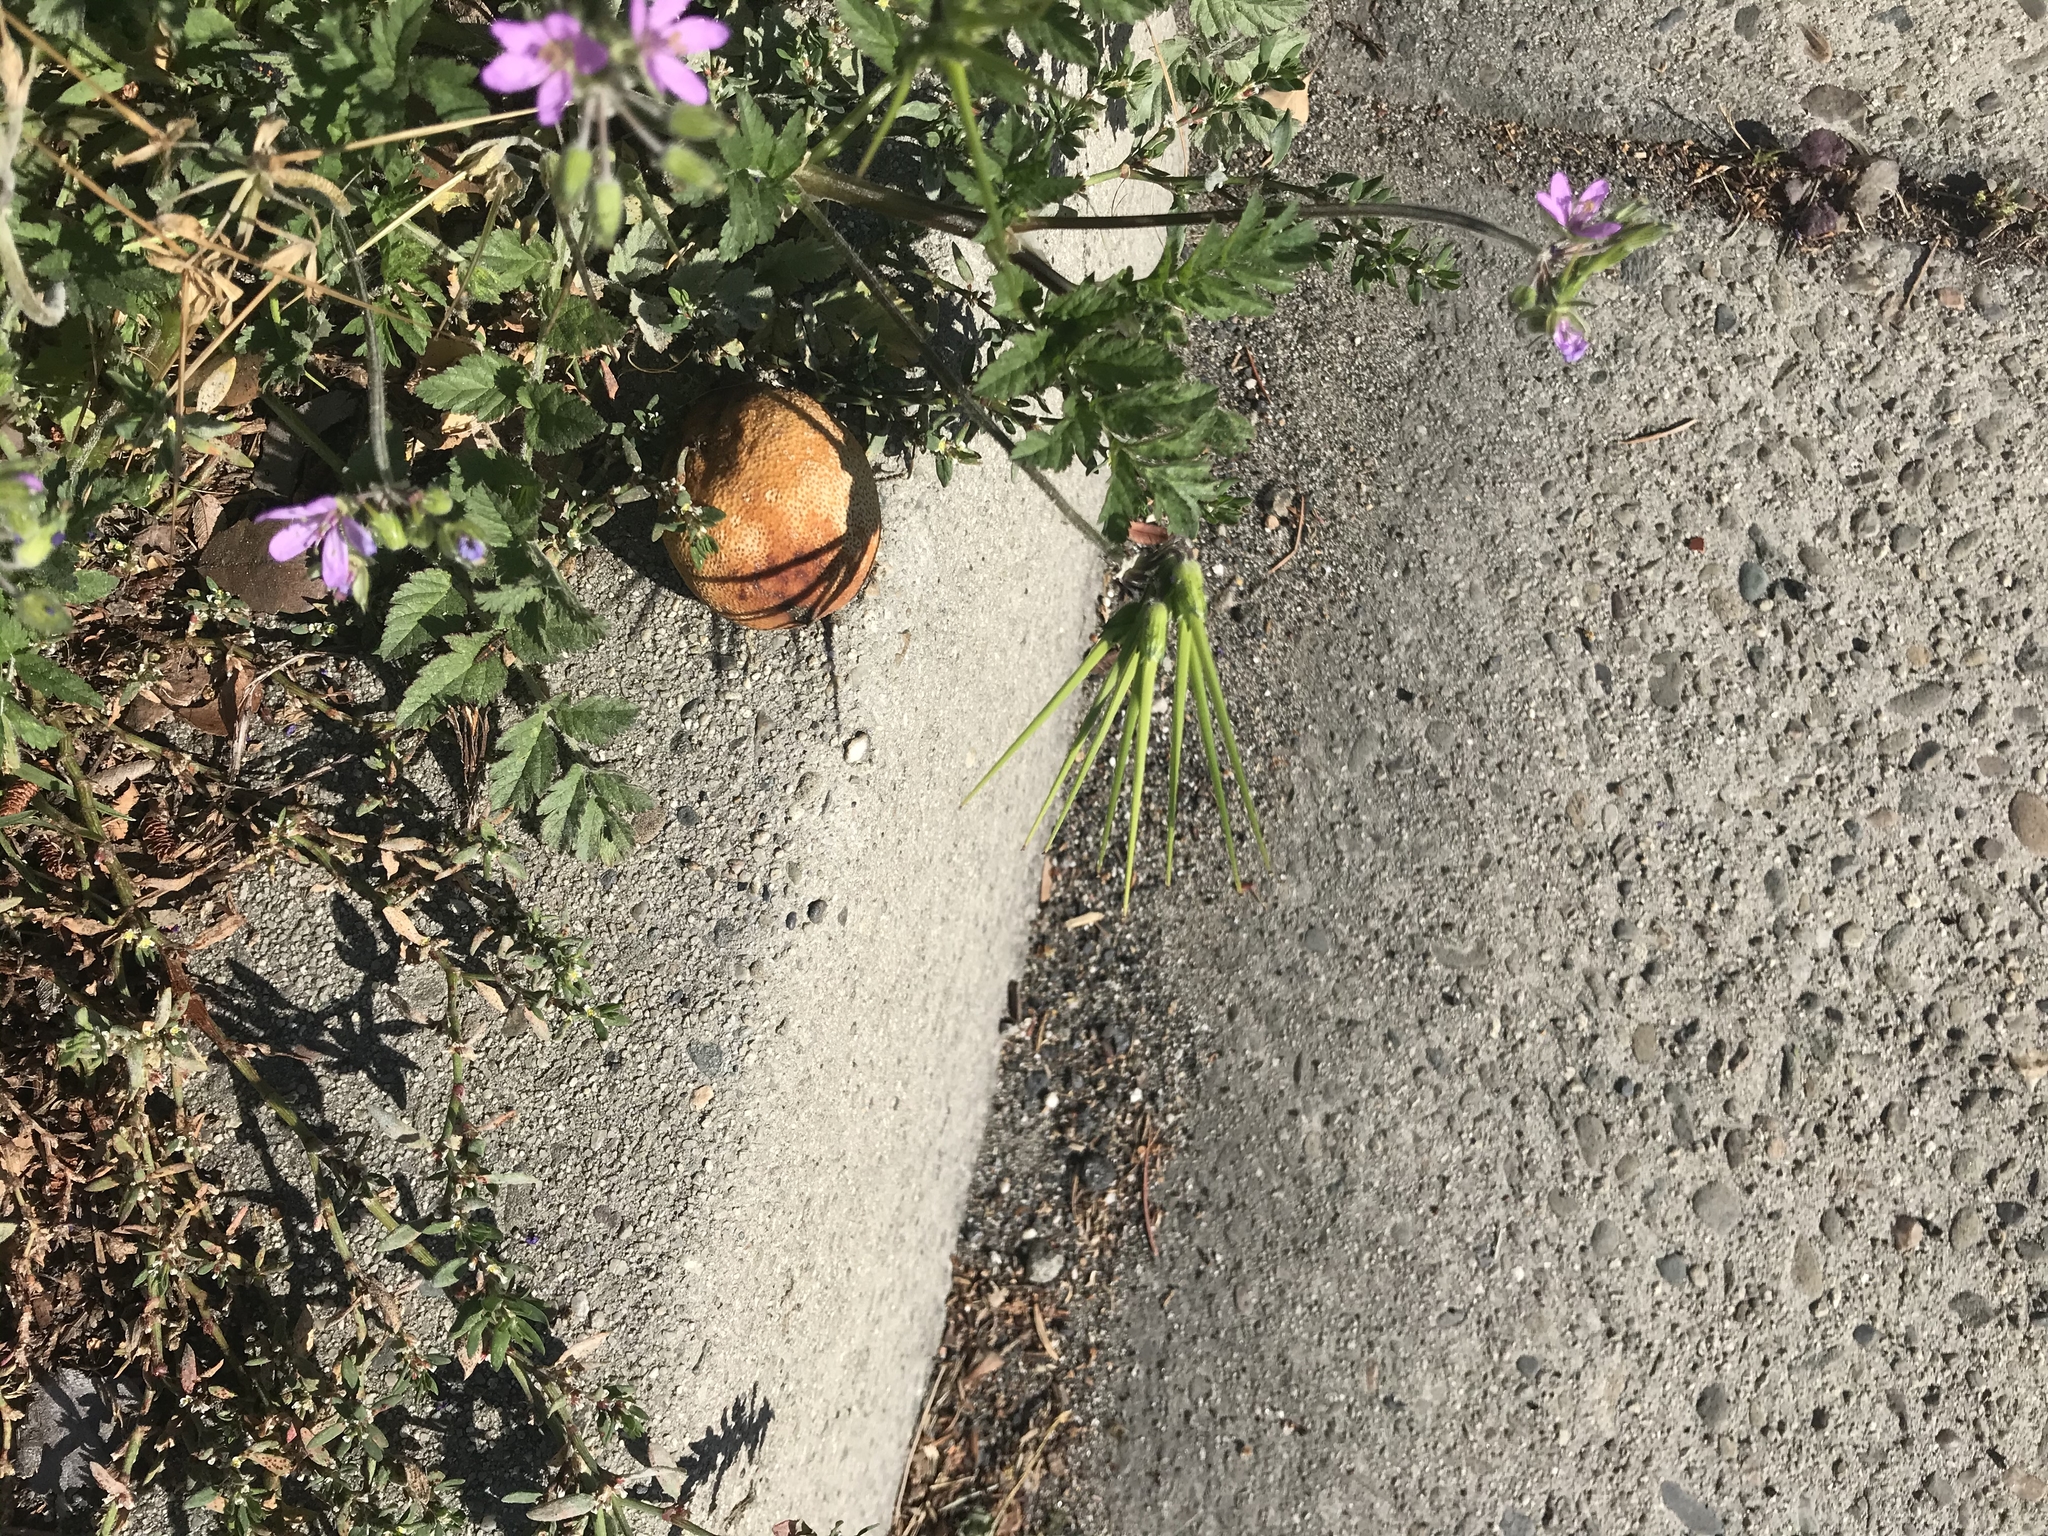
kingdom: Plantae
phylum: Tracheophyta
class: Magnoliopsida
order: Geraniales
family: Geraniaceae
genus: Erodium
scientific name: Erodium moschatum
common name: Musk stork's-bill
